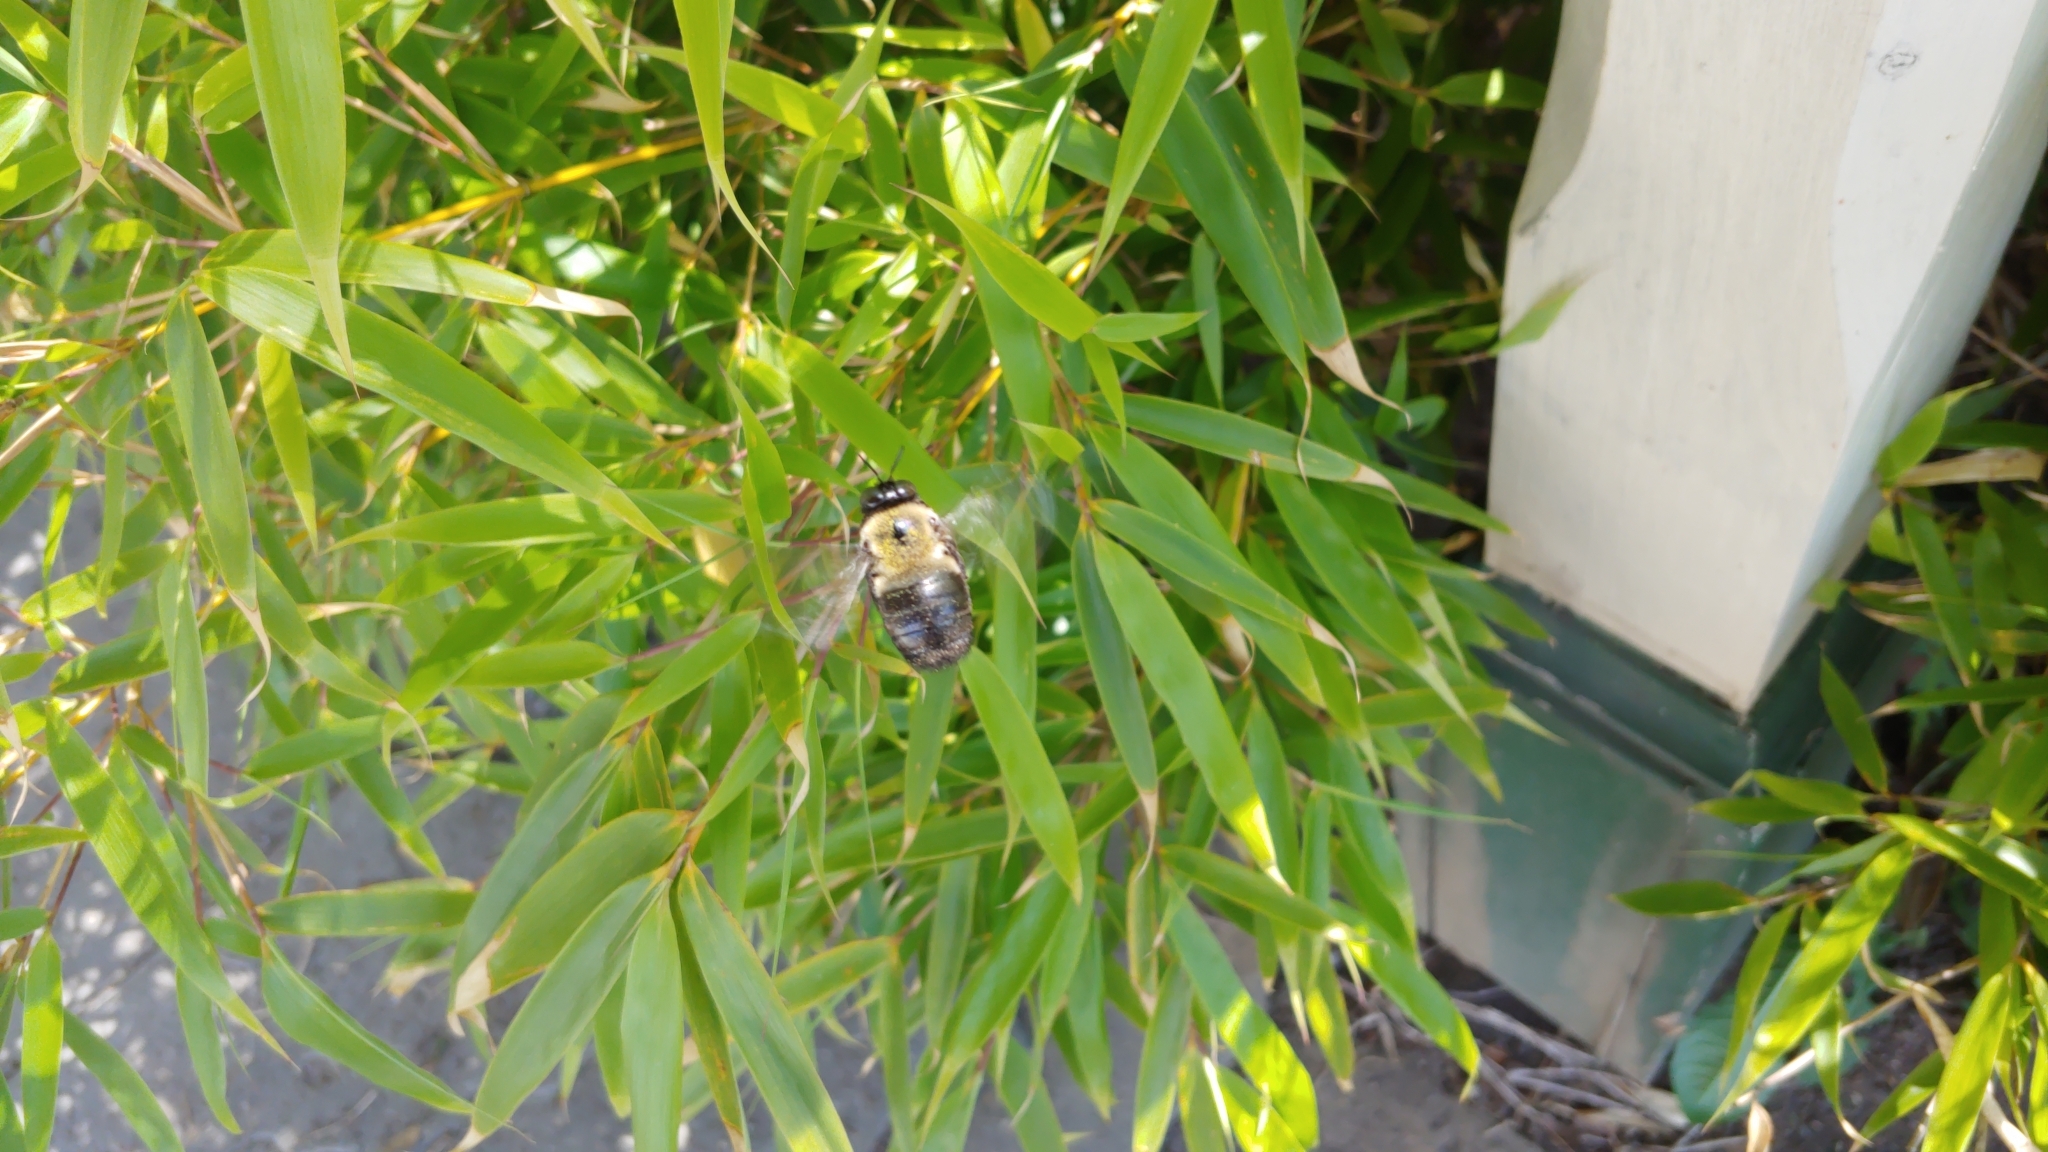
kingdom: Animalia
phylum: Arthropoda
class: Insecta
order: Hymenoptera
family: Apidae
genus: Xylocopa
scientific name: Xylocopa virginica
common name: Carpenter bee
